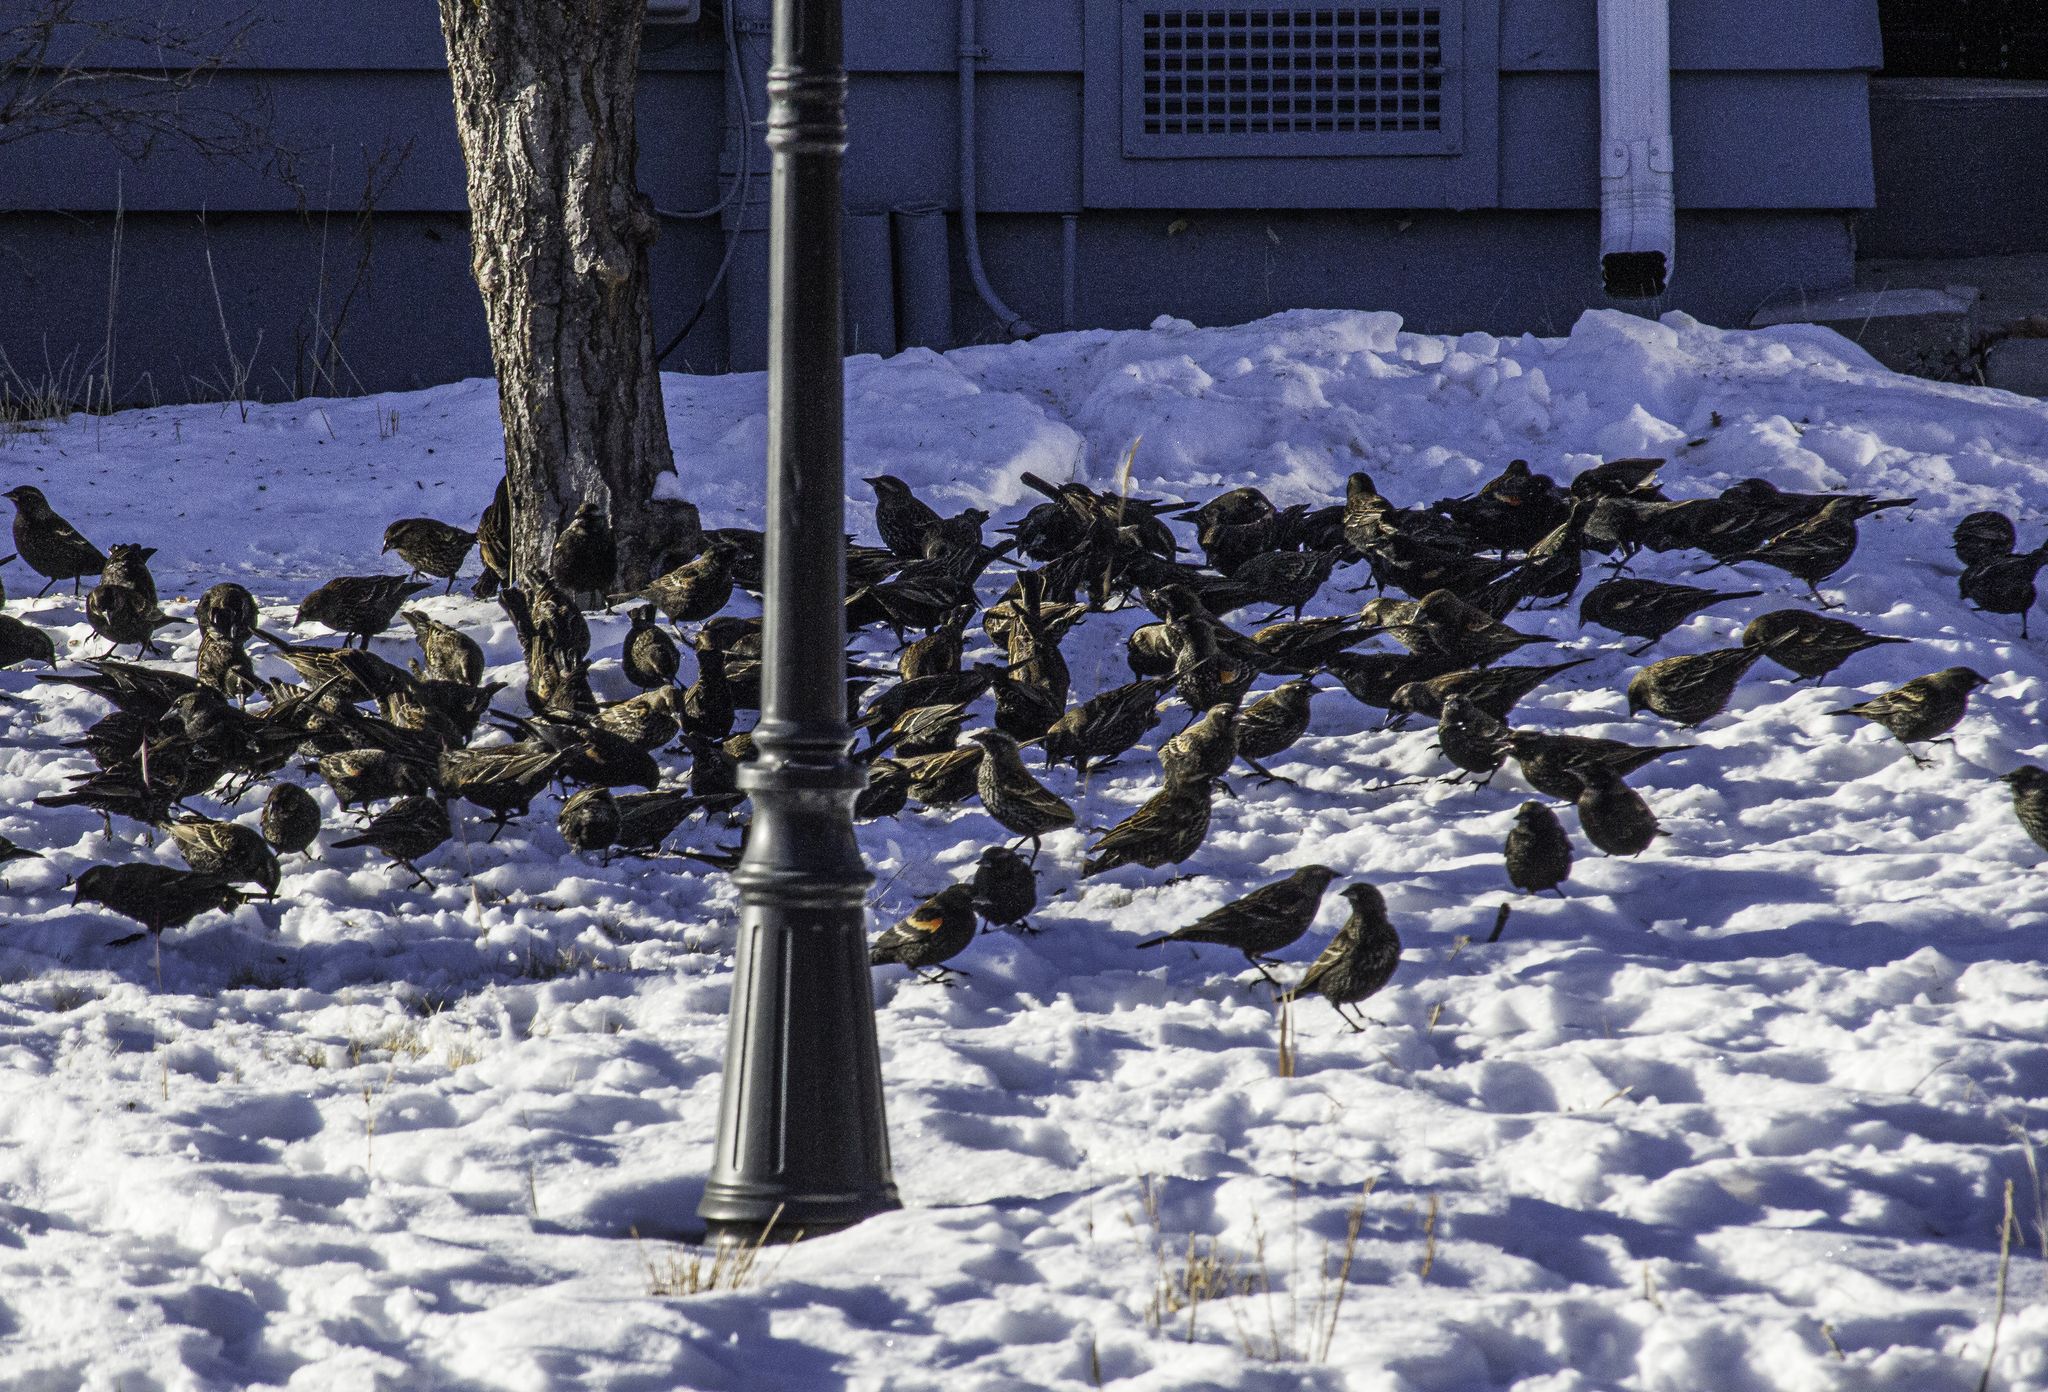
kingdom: Animalia
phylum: Chordata
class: Aves
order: Passeriformes
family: Icteridae
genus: Agelaius
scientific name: Agelaius phoeniceus
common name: Red-winged blackbird
